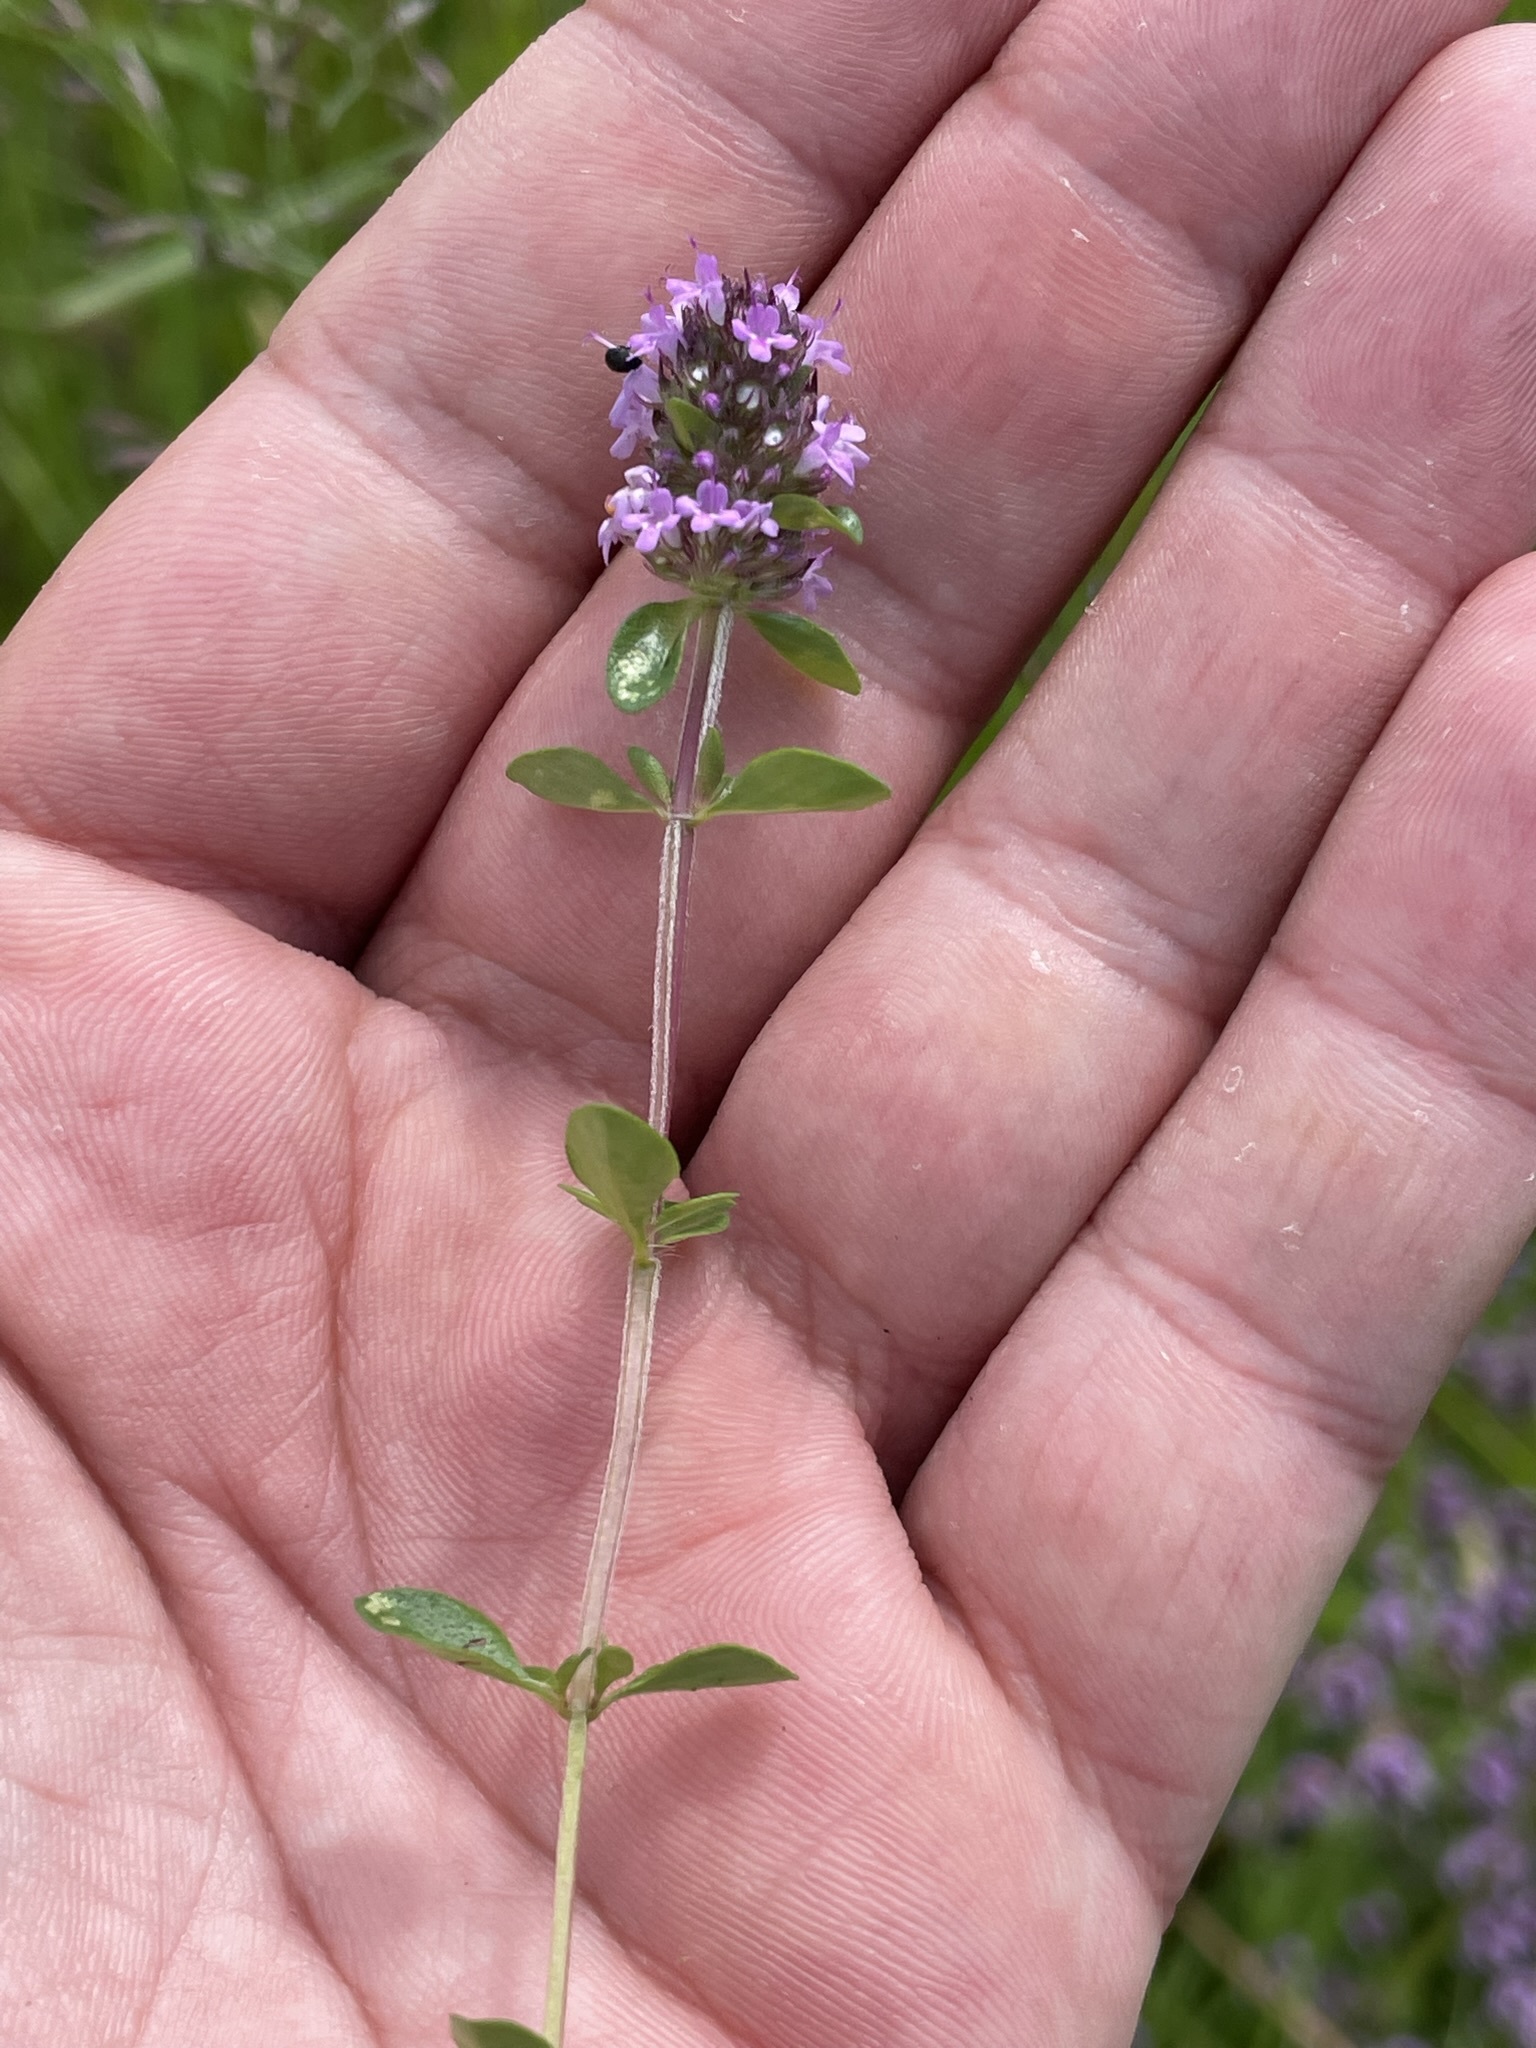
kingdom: Plantae
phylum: Tracheophyta
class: Magnoliopsida
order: Lamiales
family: Lamiaceae
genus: Thymus
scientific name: Thymus pulegioides
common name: Large thyme
